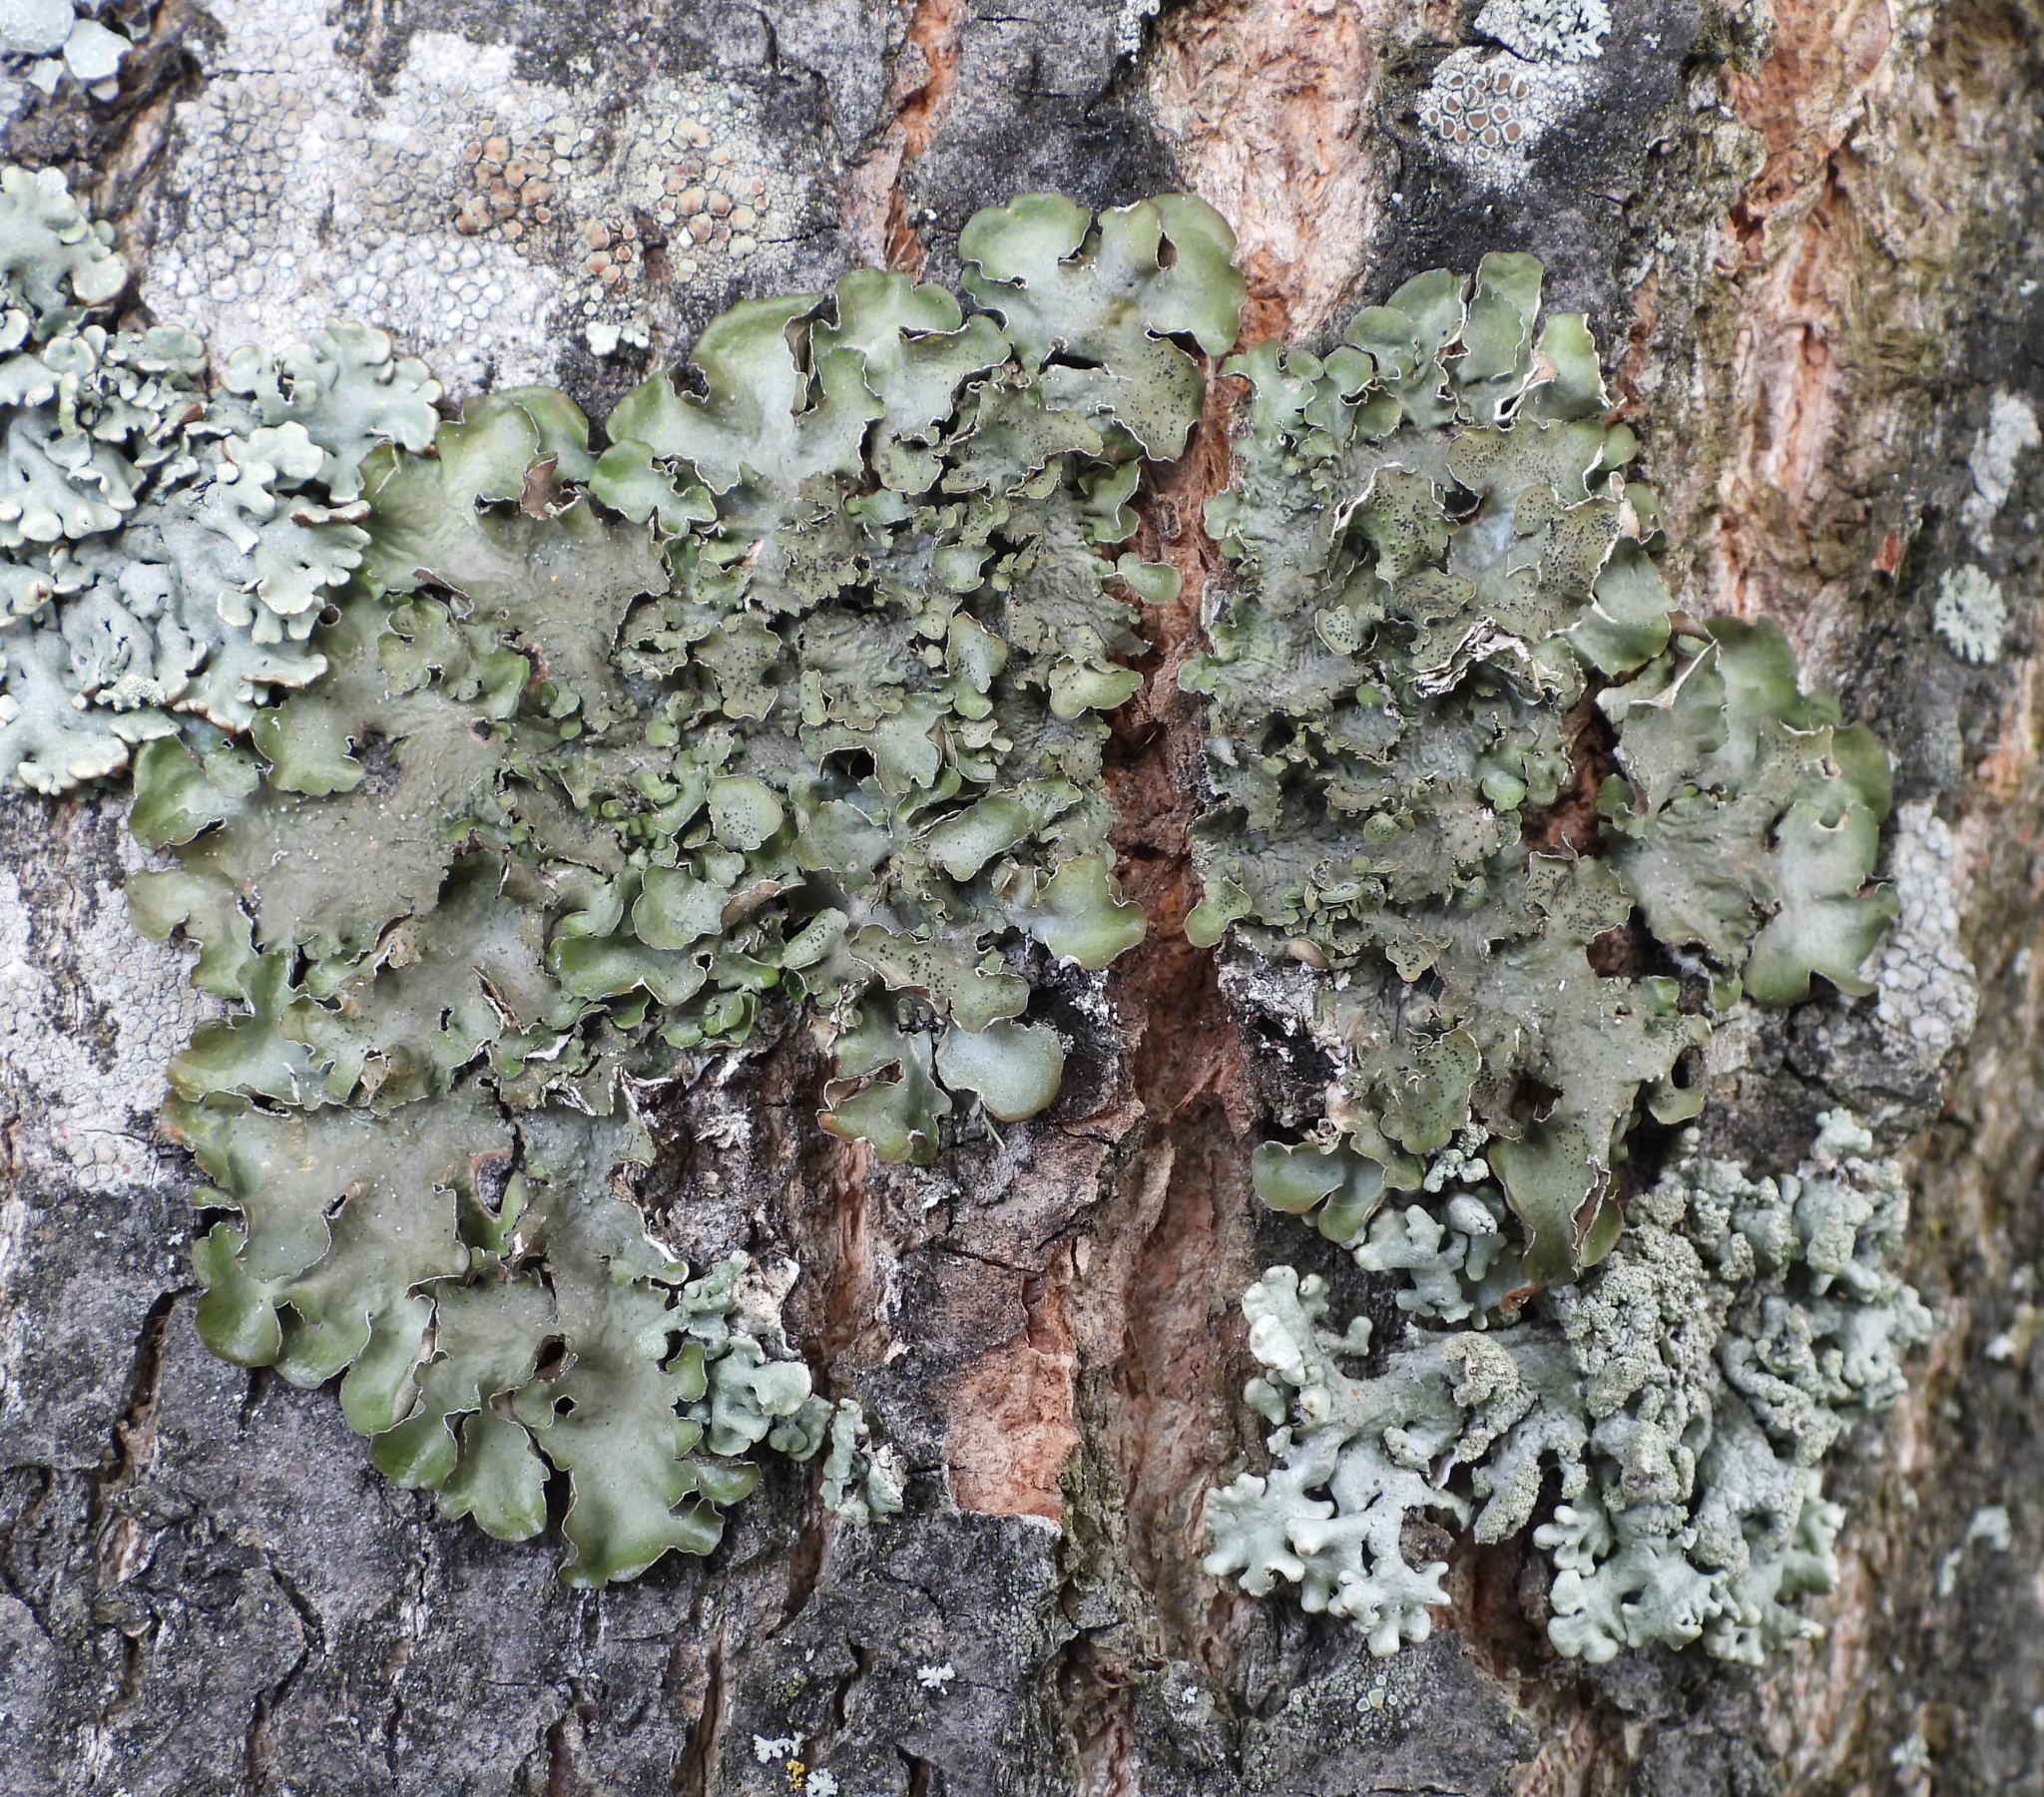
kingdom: Fungi
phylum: Ascomycota
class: Lecanoromycetes
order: Lecanorales
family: Parmeliaceae
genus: Pleurosticta
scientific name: Pleurosticta acetabulum
